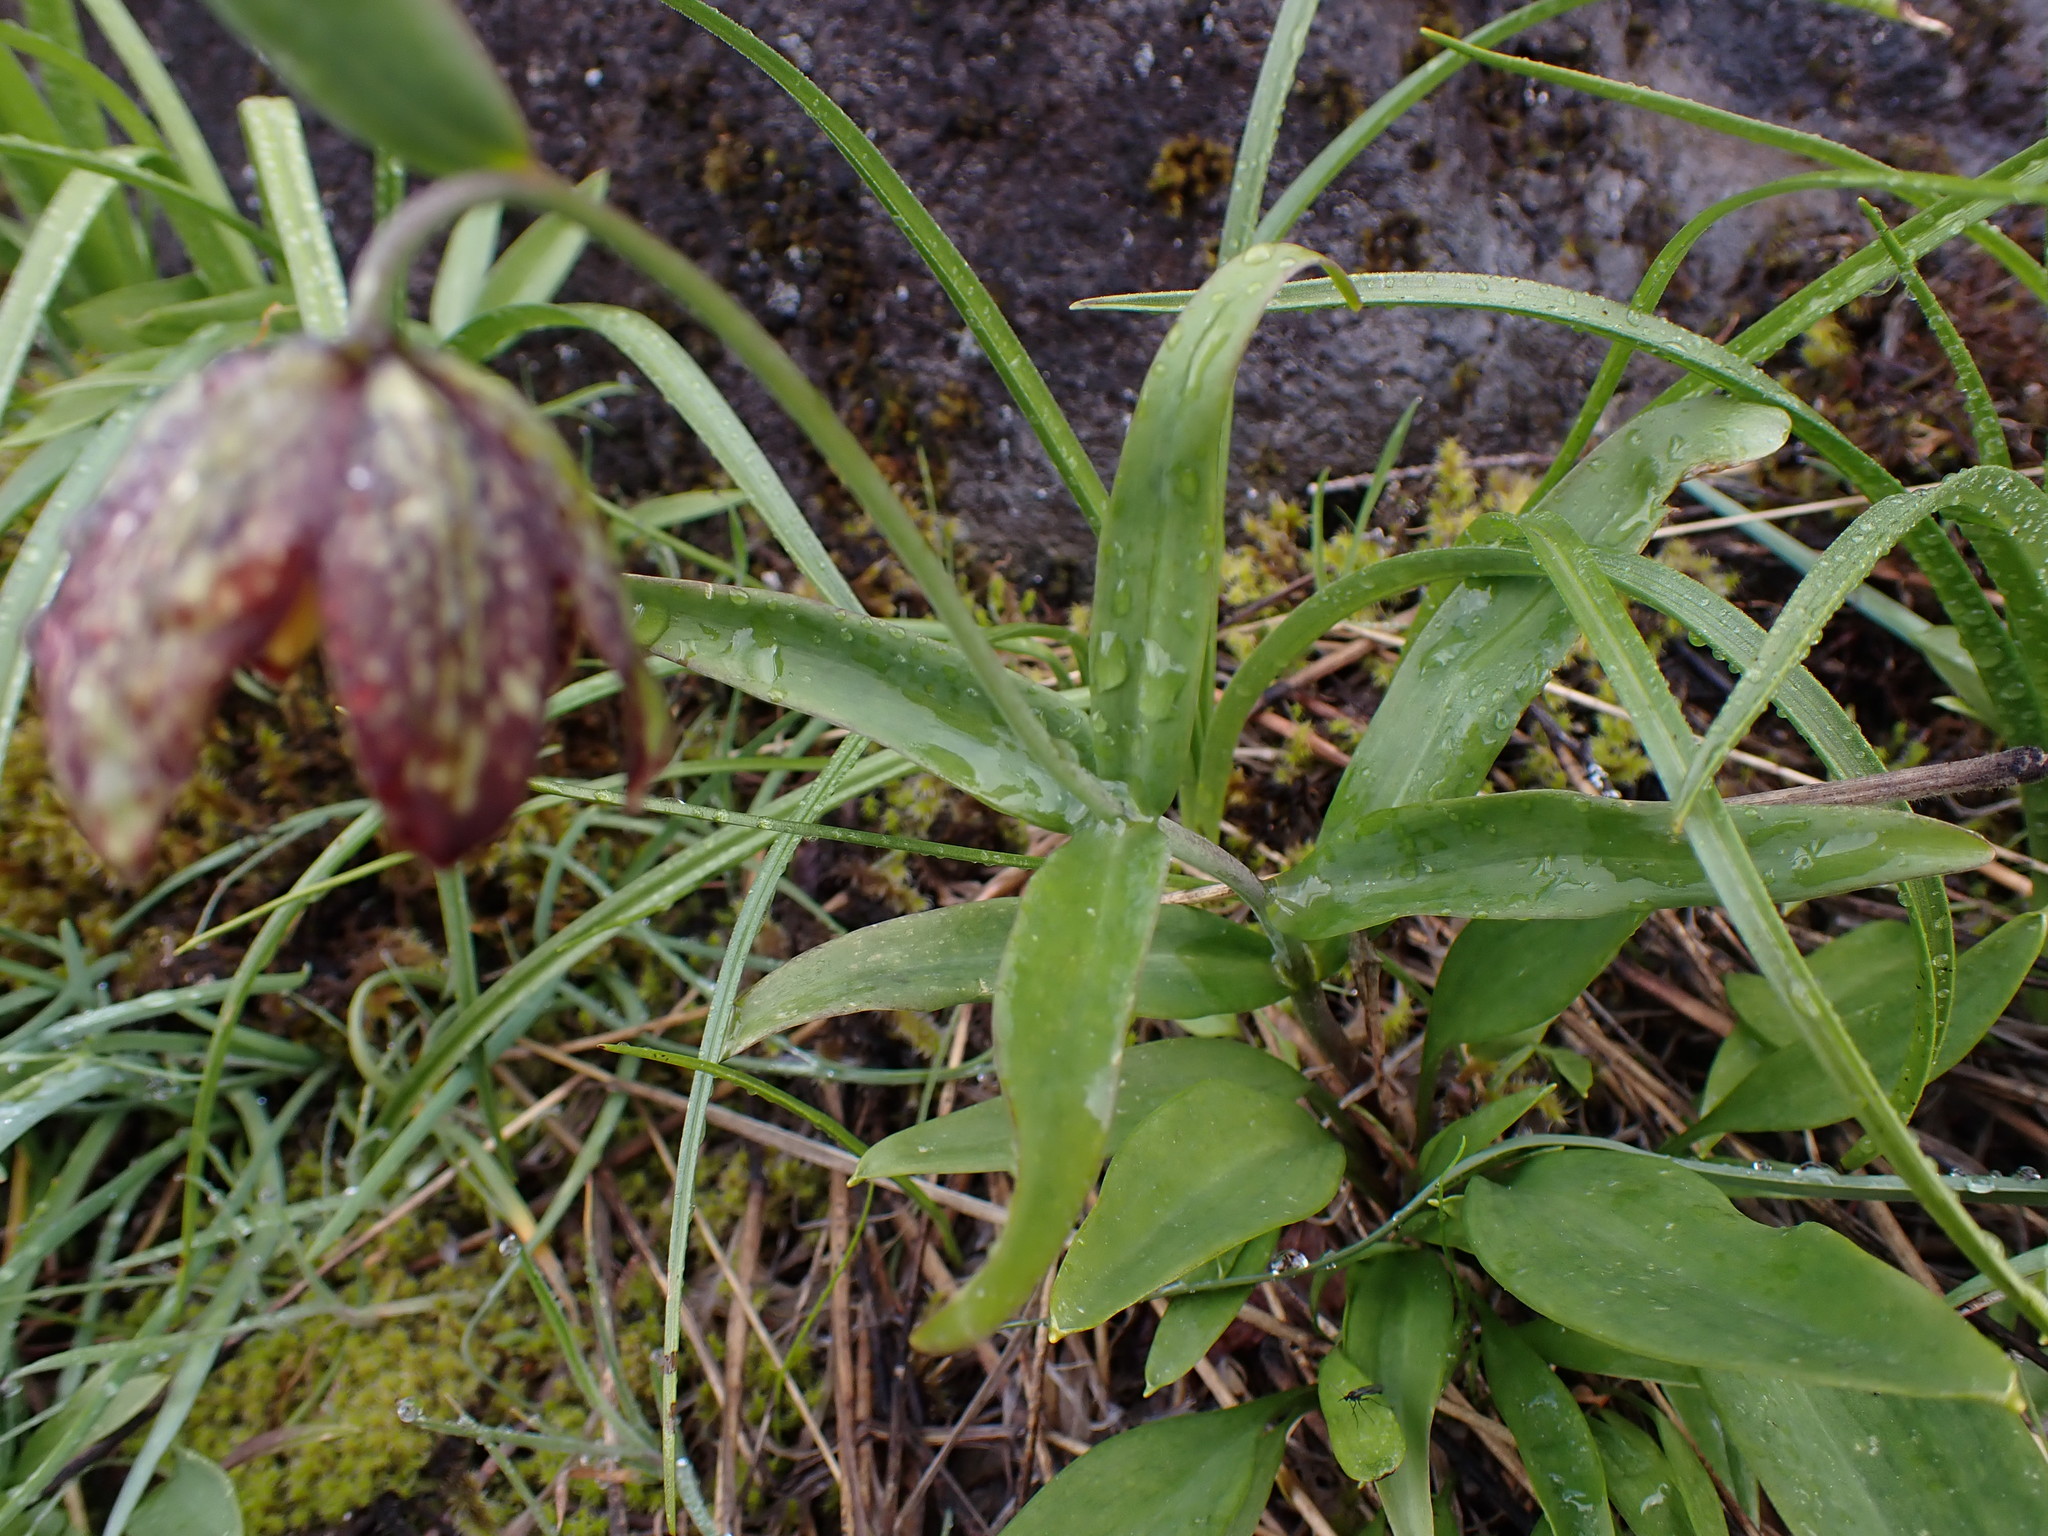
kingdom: Plantae
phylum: Tracheophyta
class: Liliopsida
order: Liliales
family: Liliaceae
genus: Fritillaria
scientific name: Fritillaria affinis
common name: Ojai fritillary
